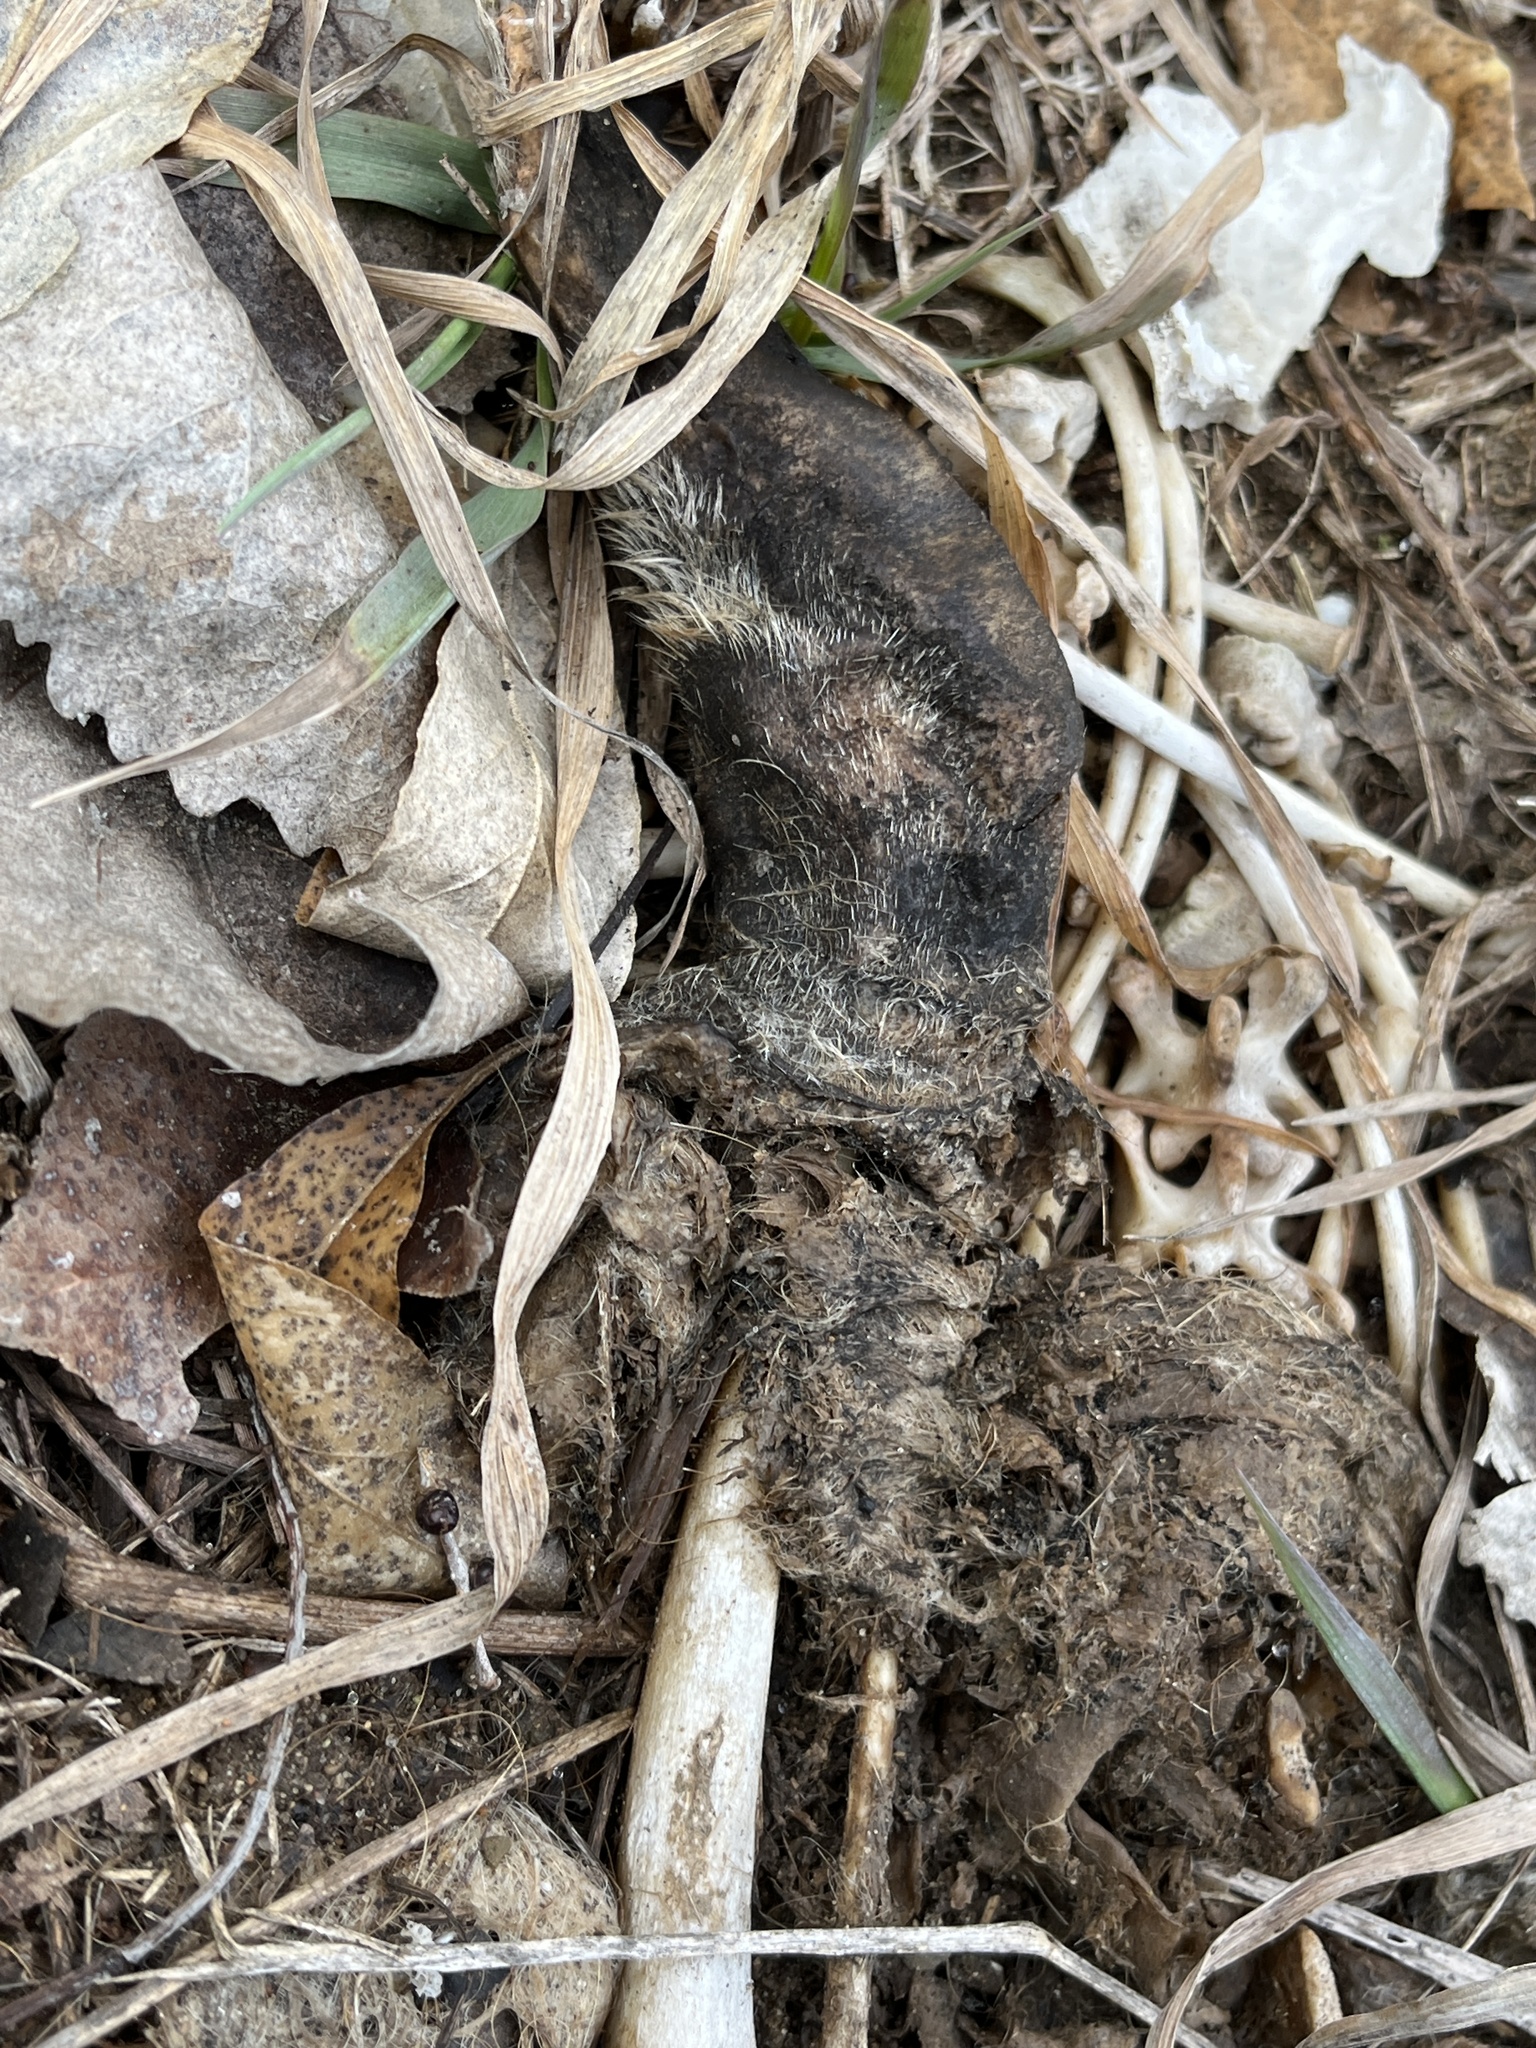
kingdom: Animalia
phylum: Chordata
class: Mammalia
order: Carnivora
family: Procyonidae
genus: Procyon
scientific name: Procyon lotor
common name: Raccoon
